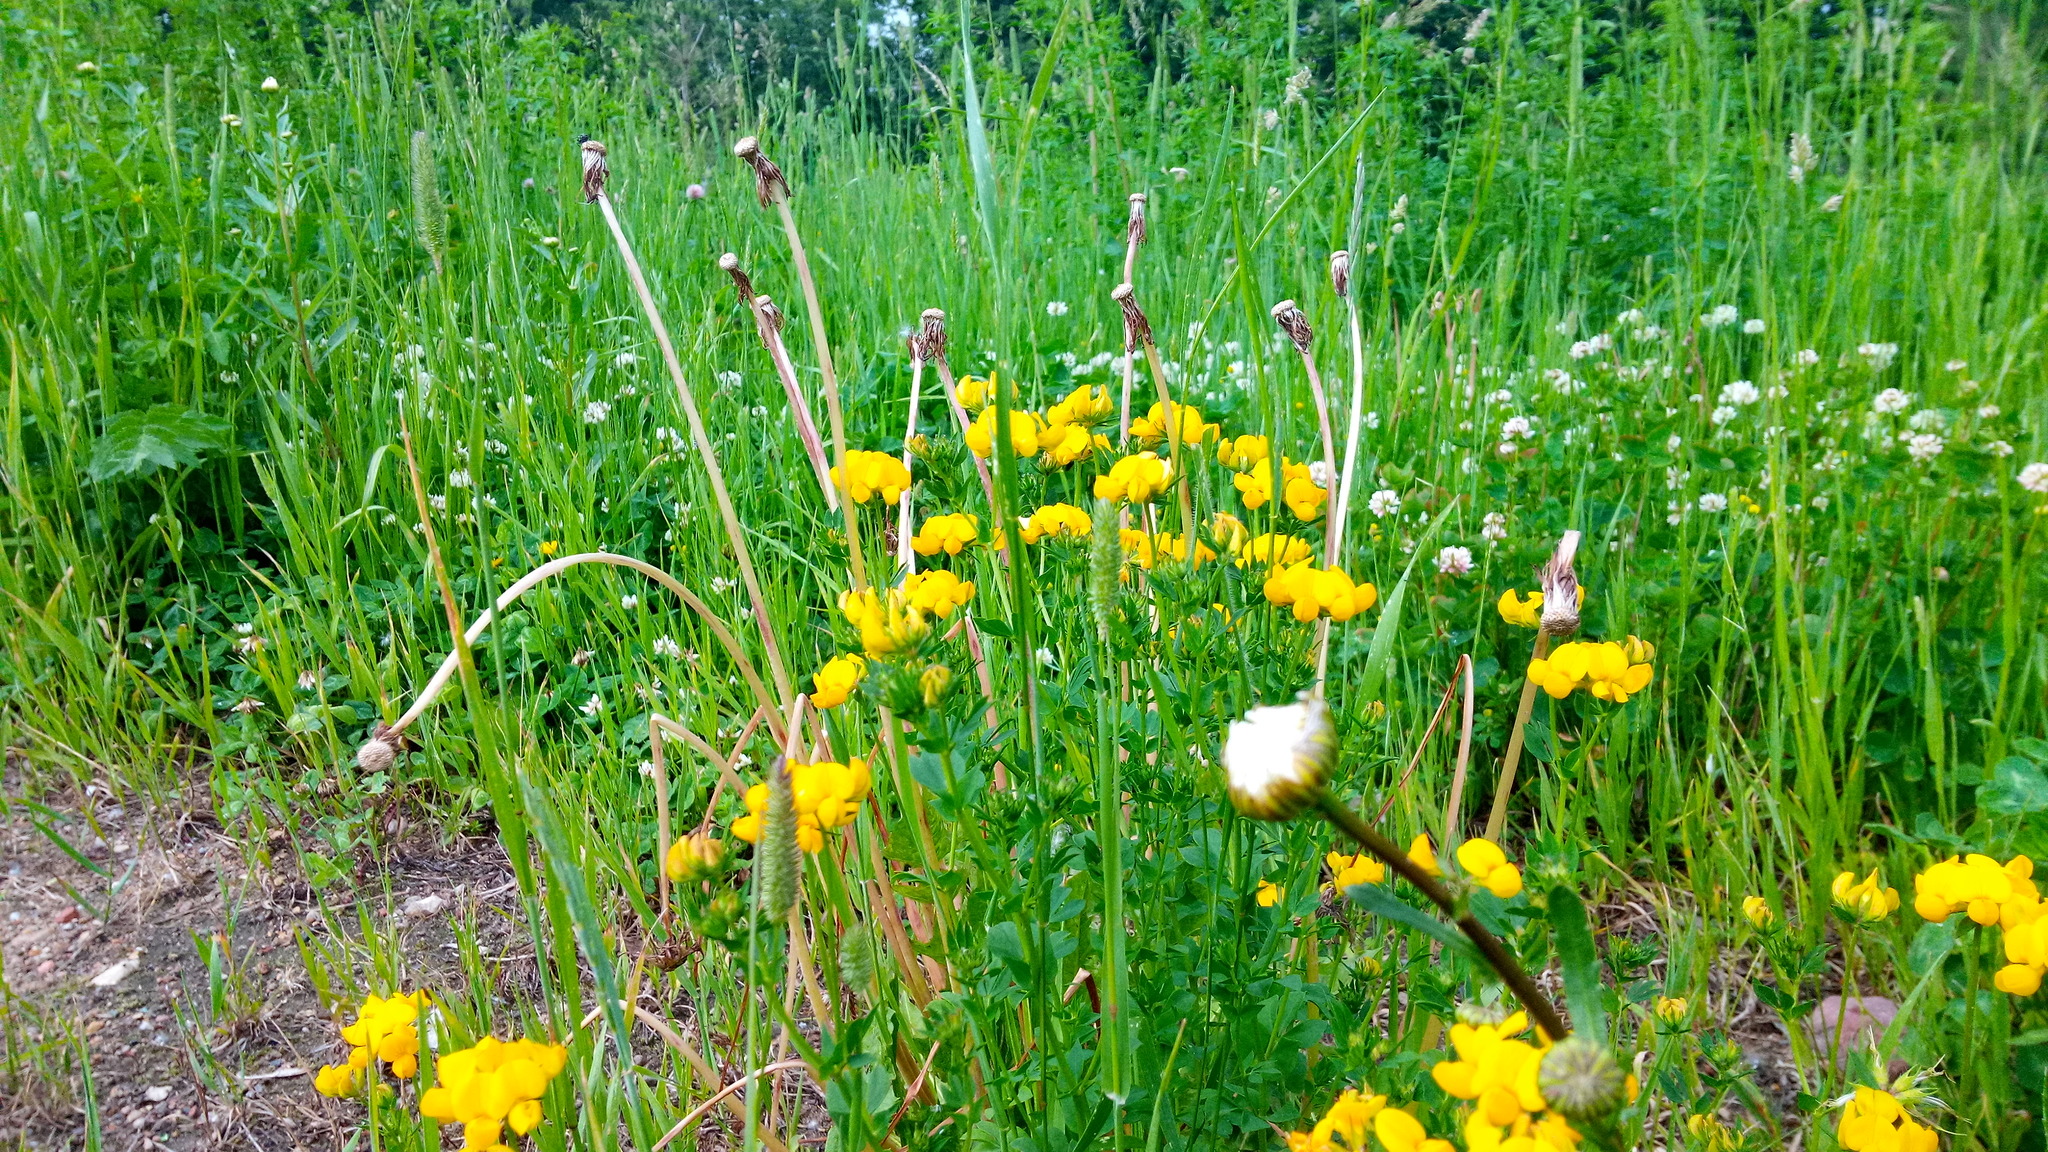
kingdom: Plantae
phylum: Tracheophyta
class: Magnoliopsida
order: Fabales
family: Fabaceae
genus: Lotus
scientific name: Lotus corniculatus
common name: Common bird's-foot-trefoil
